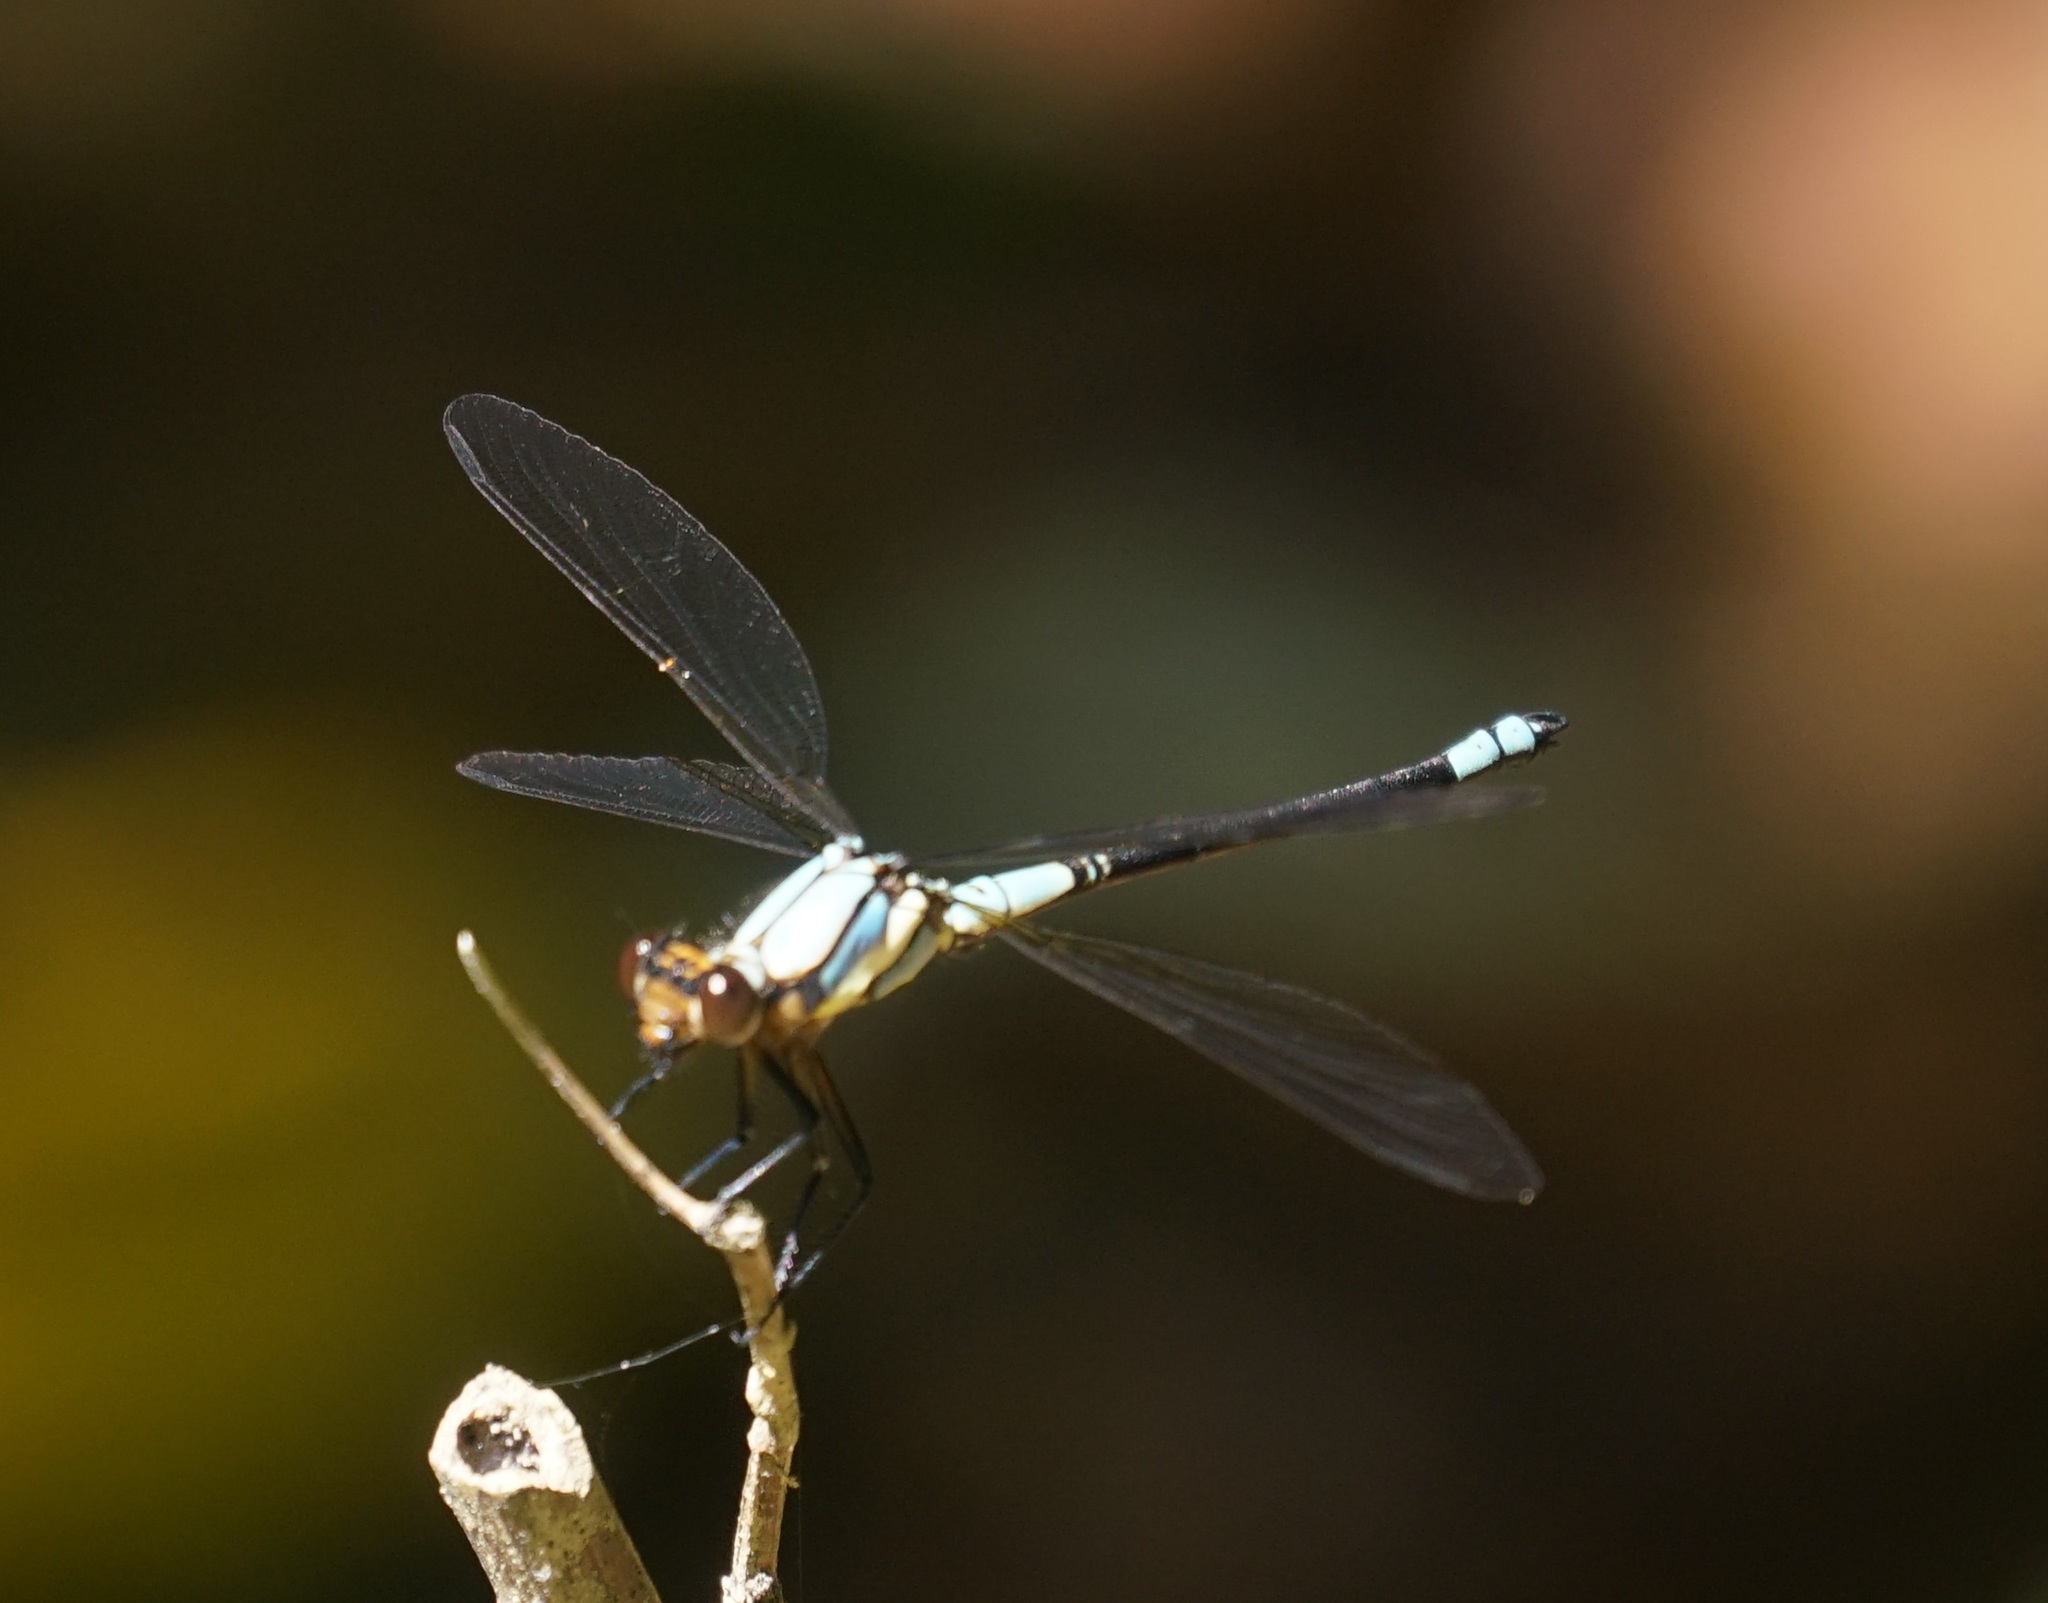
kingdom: Animalia
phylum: Arthropoda
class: Insecta
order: Odonata
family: Lestoideidae
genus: Diphlebia
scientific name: Diphlebia euphoeoides
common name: Tropical rockmaster
